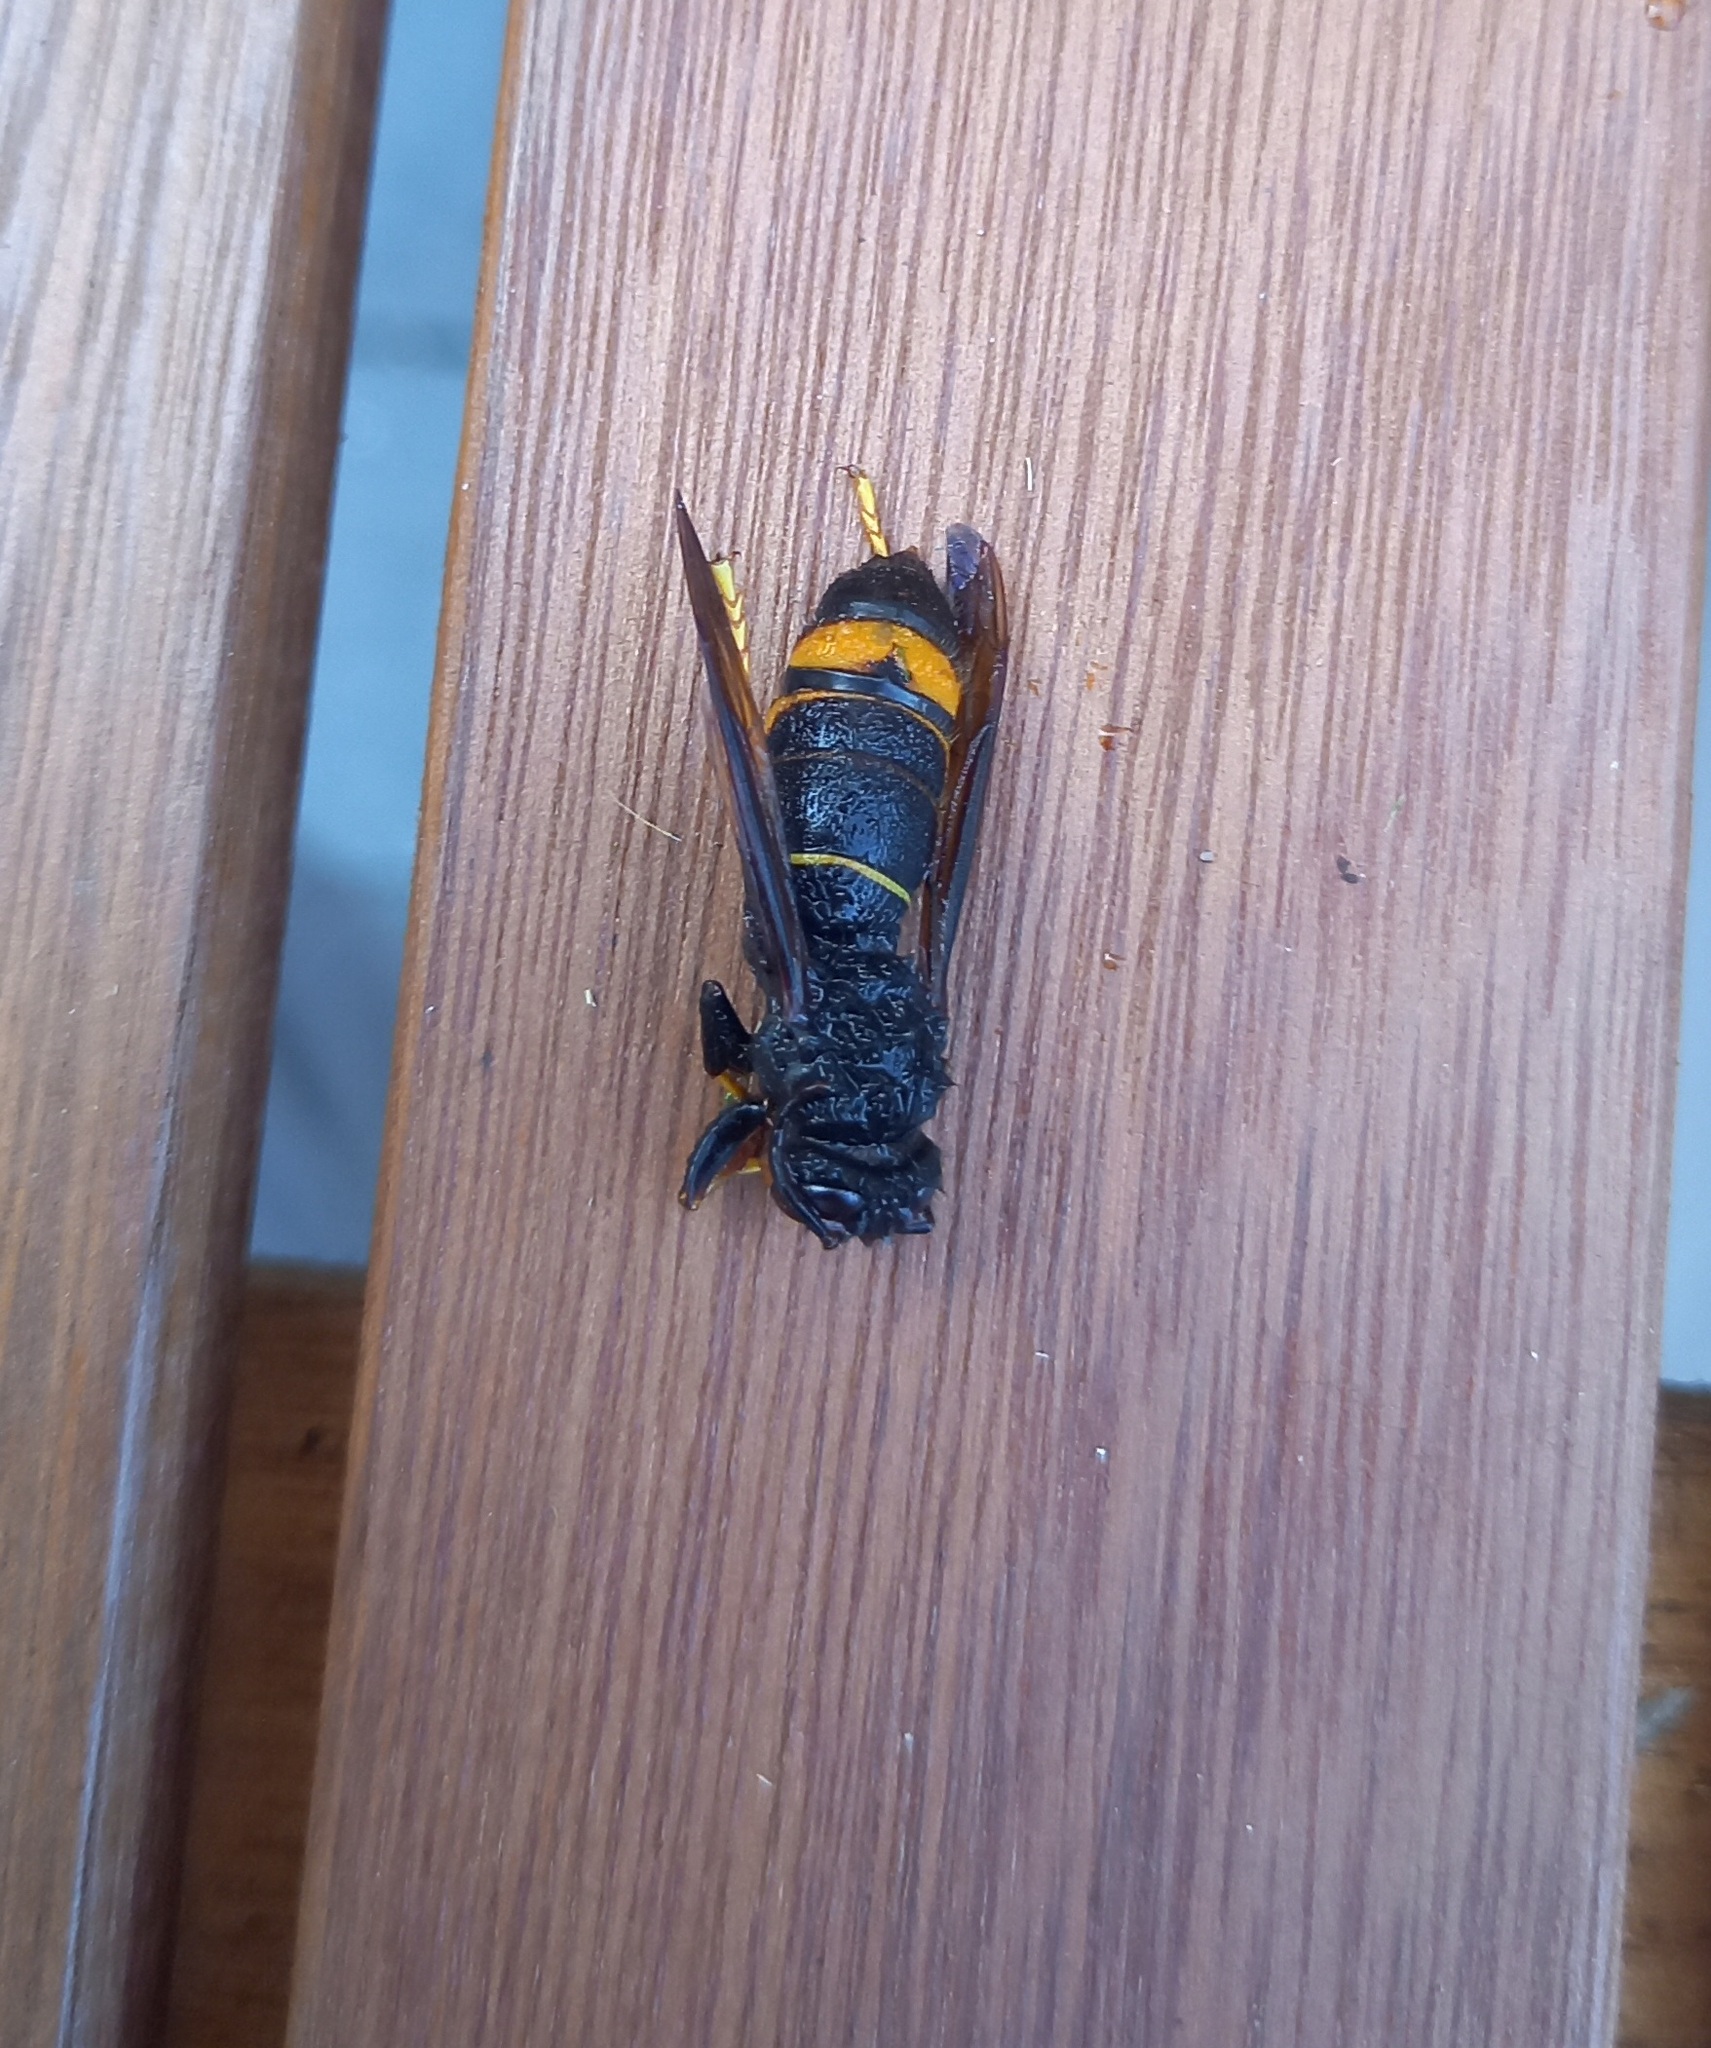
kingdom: Animalia
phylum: Arthropoda
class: Insecta
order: Hymenoptera
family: Vespidae
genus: Vespa
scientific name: Vespa velutina
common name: Asian hornet
